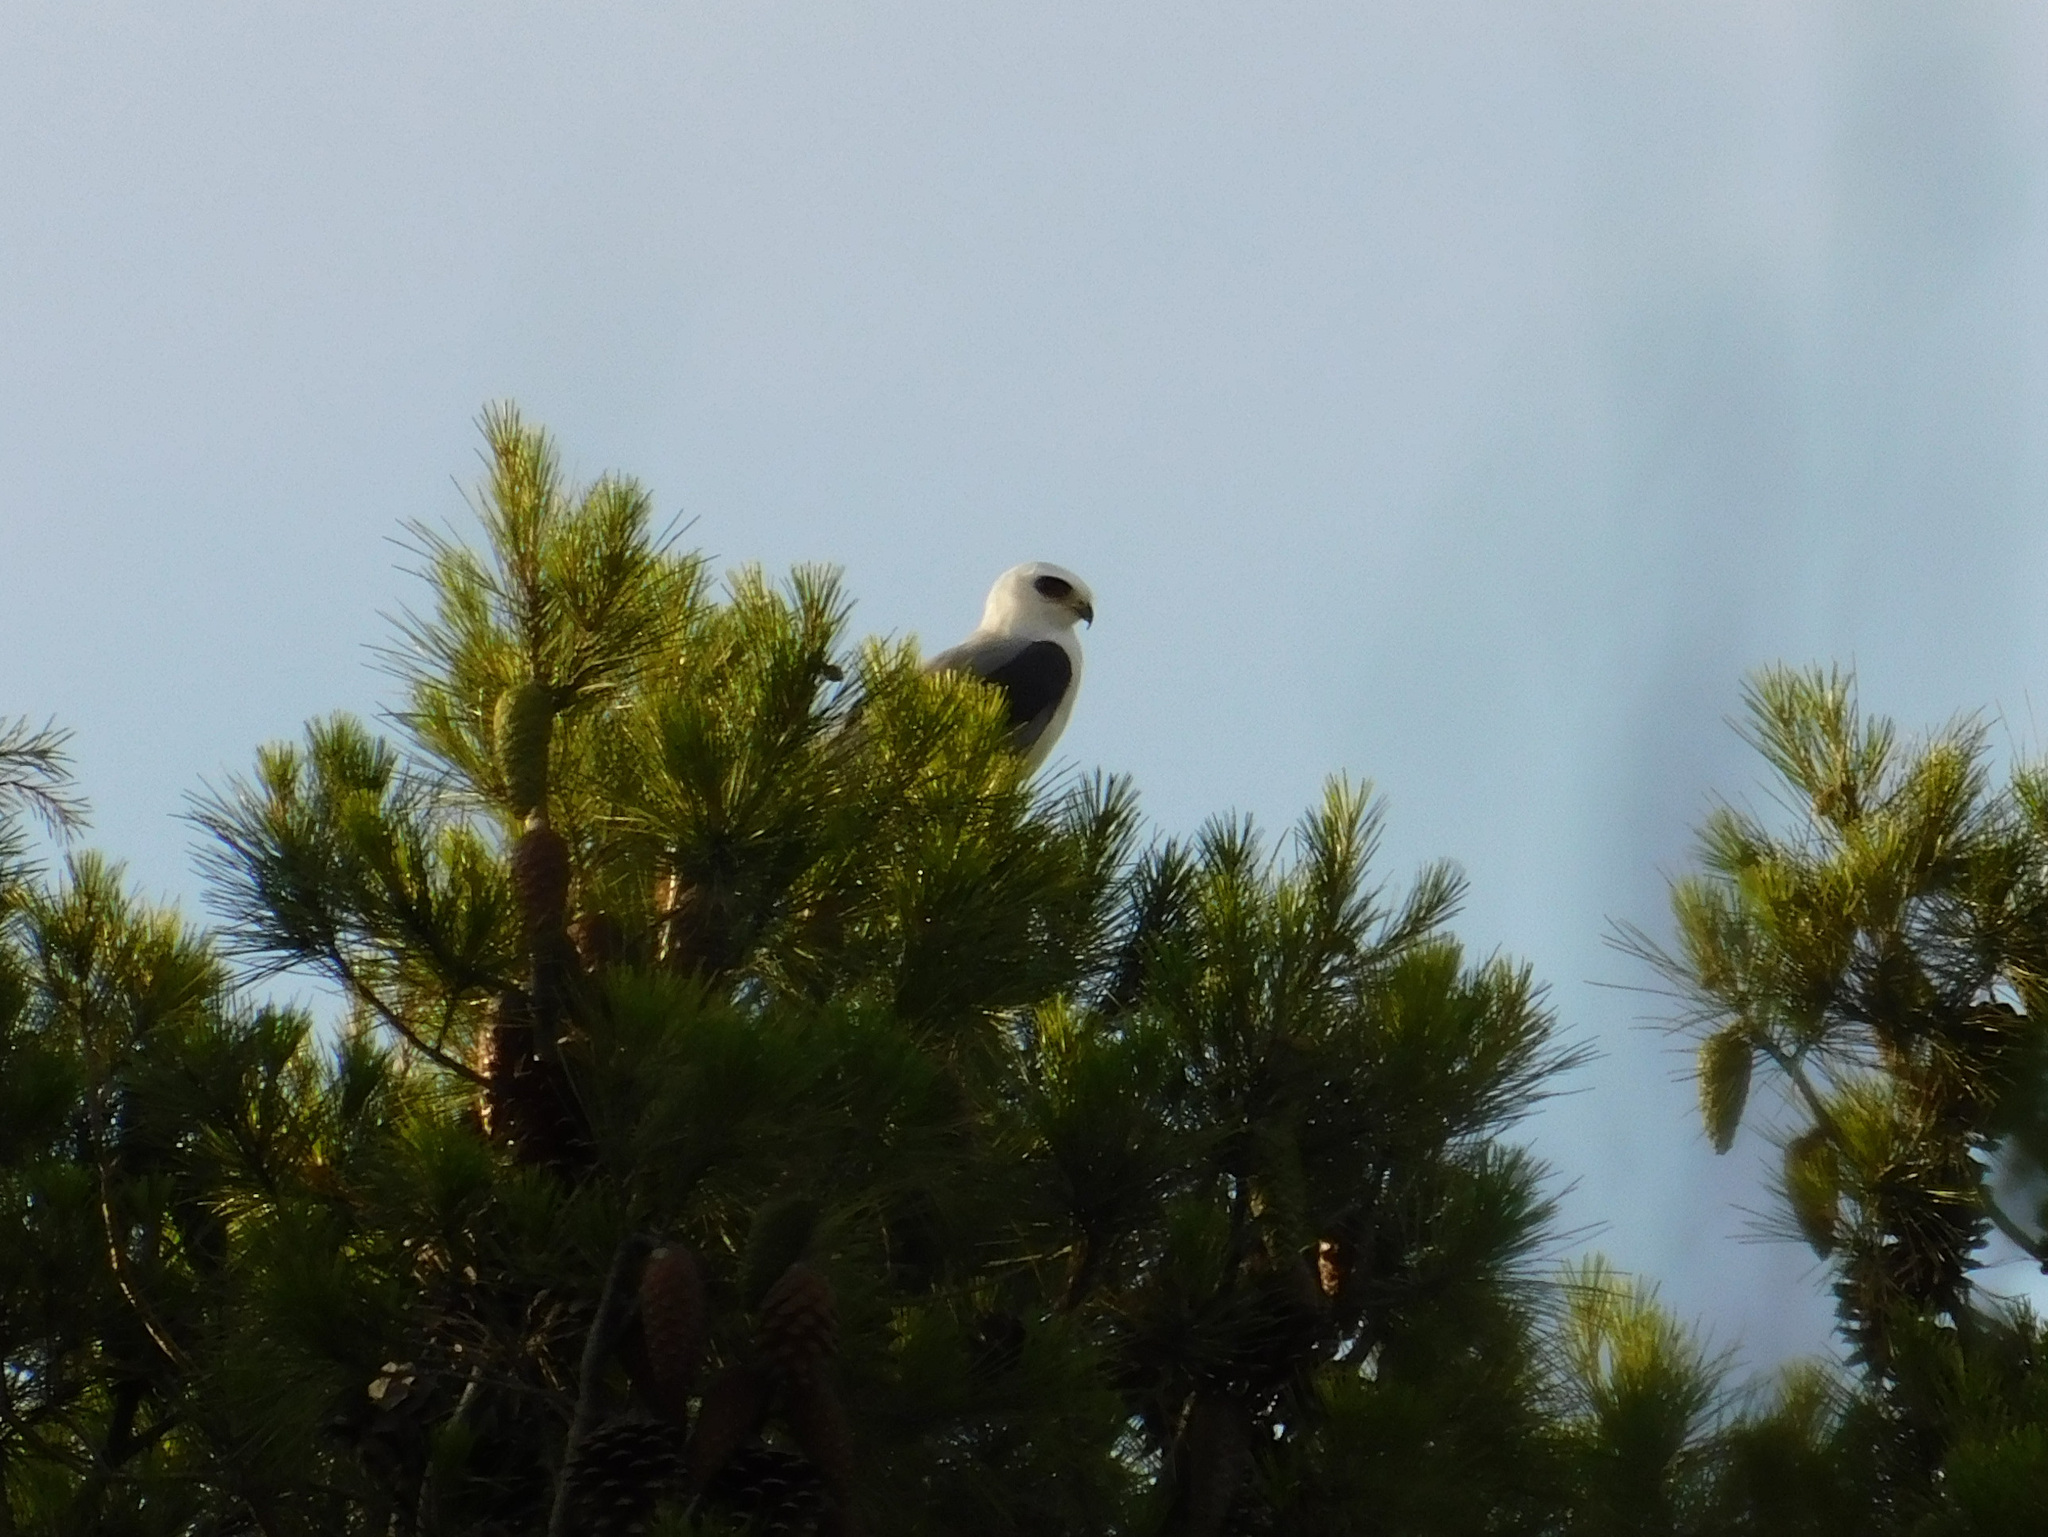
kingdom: Animalia
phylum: Chordata
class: Aves
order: Accipitriformes
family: Accipitridae
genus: Elanus
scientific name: Elanus leucurus
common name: White-tailed kite
